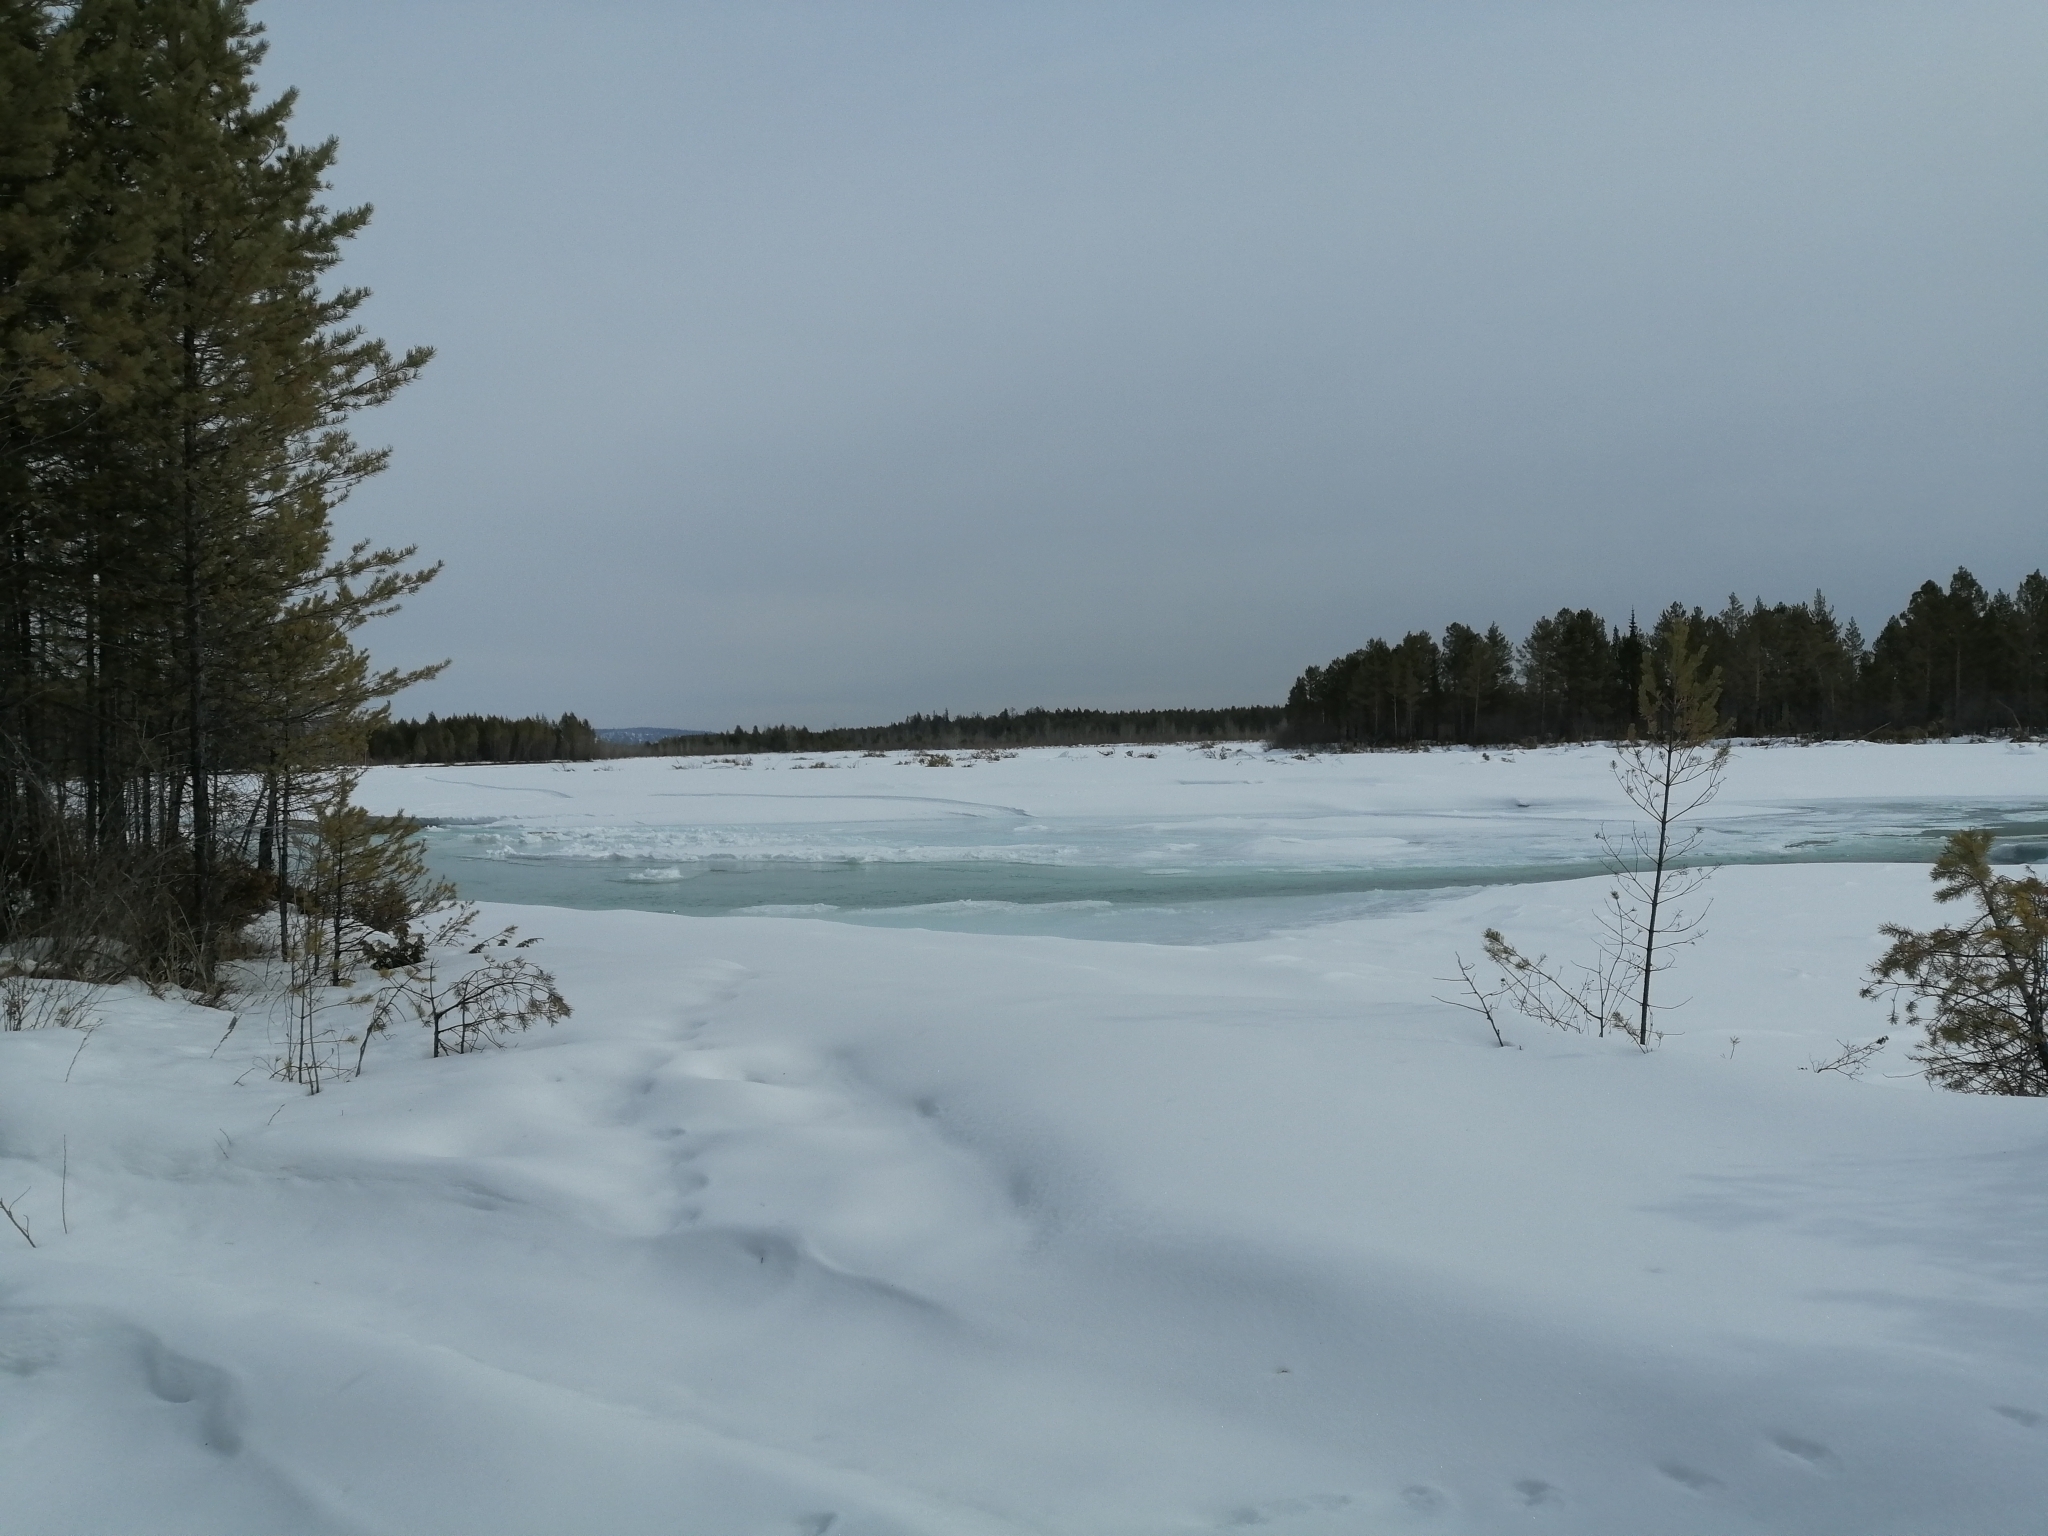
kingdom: Plantae
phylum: Tracheophyta
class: Pinopsida
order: Pinales
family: Pinaceae
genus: Pinus
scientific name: Pinus sylvestris
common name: Scots pine
